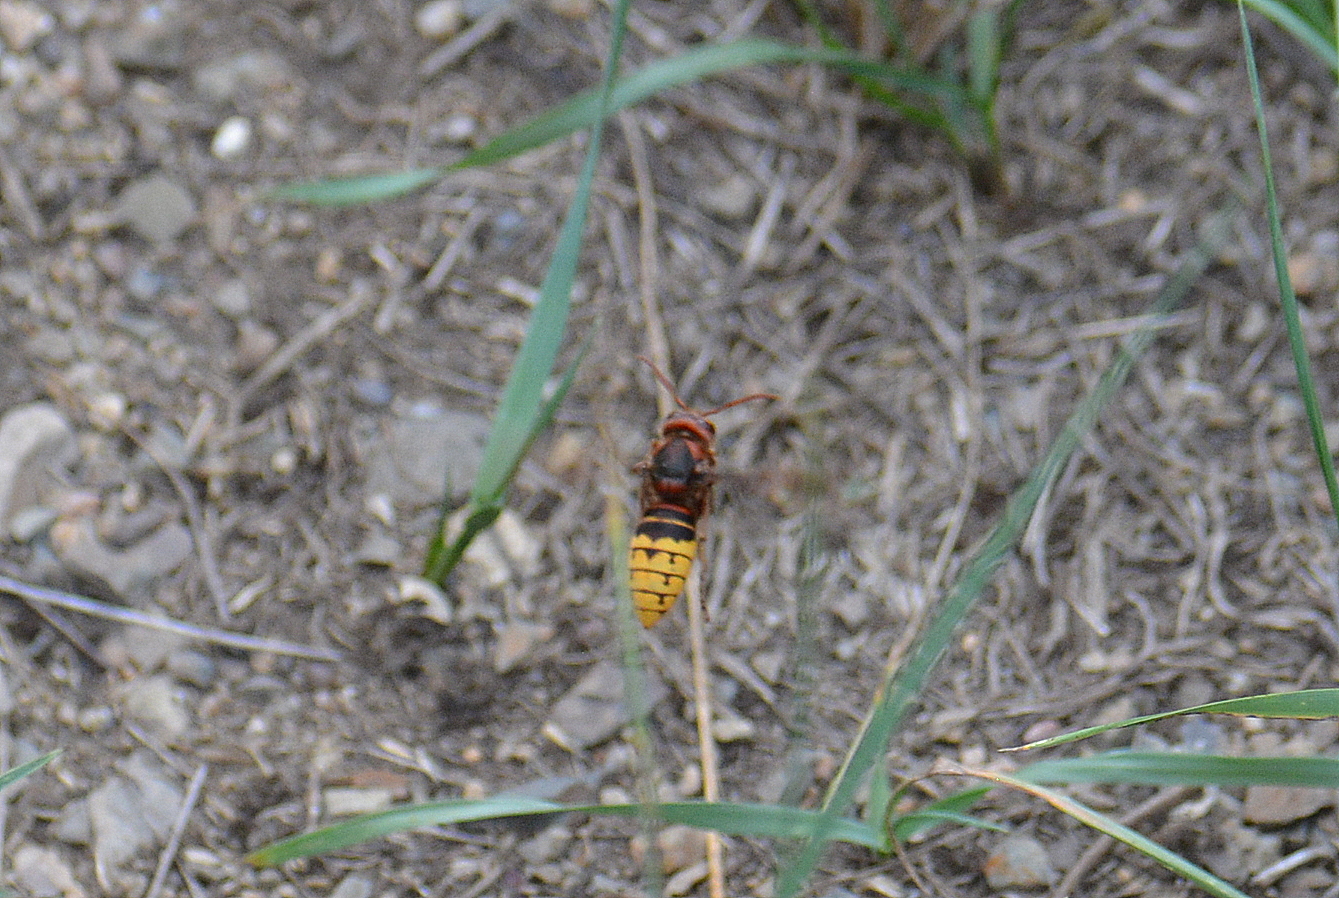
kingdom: Animalia
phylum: Arthropoda
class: Insecta
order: Hymenoptera
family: Vespidae
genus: Vespa
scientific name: Vespa crabro
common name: Hornet
